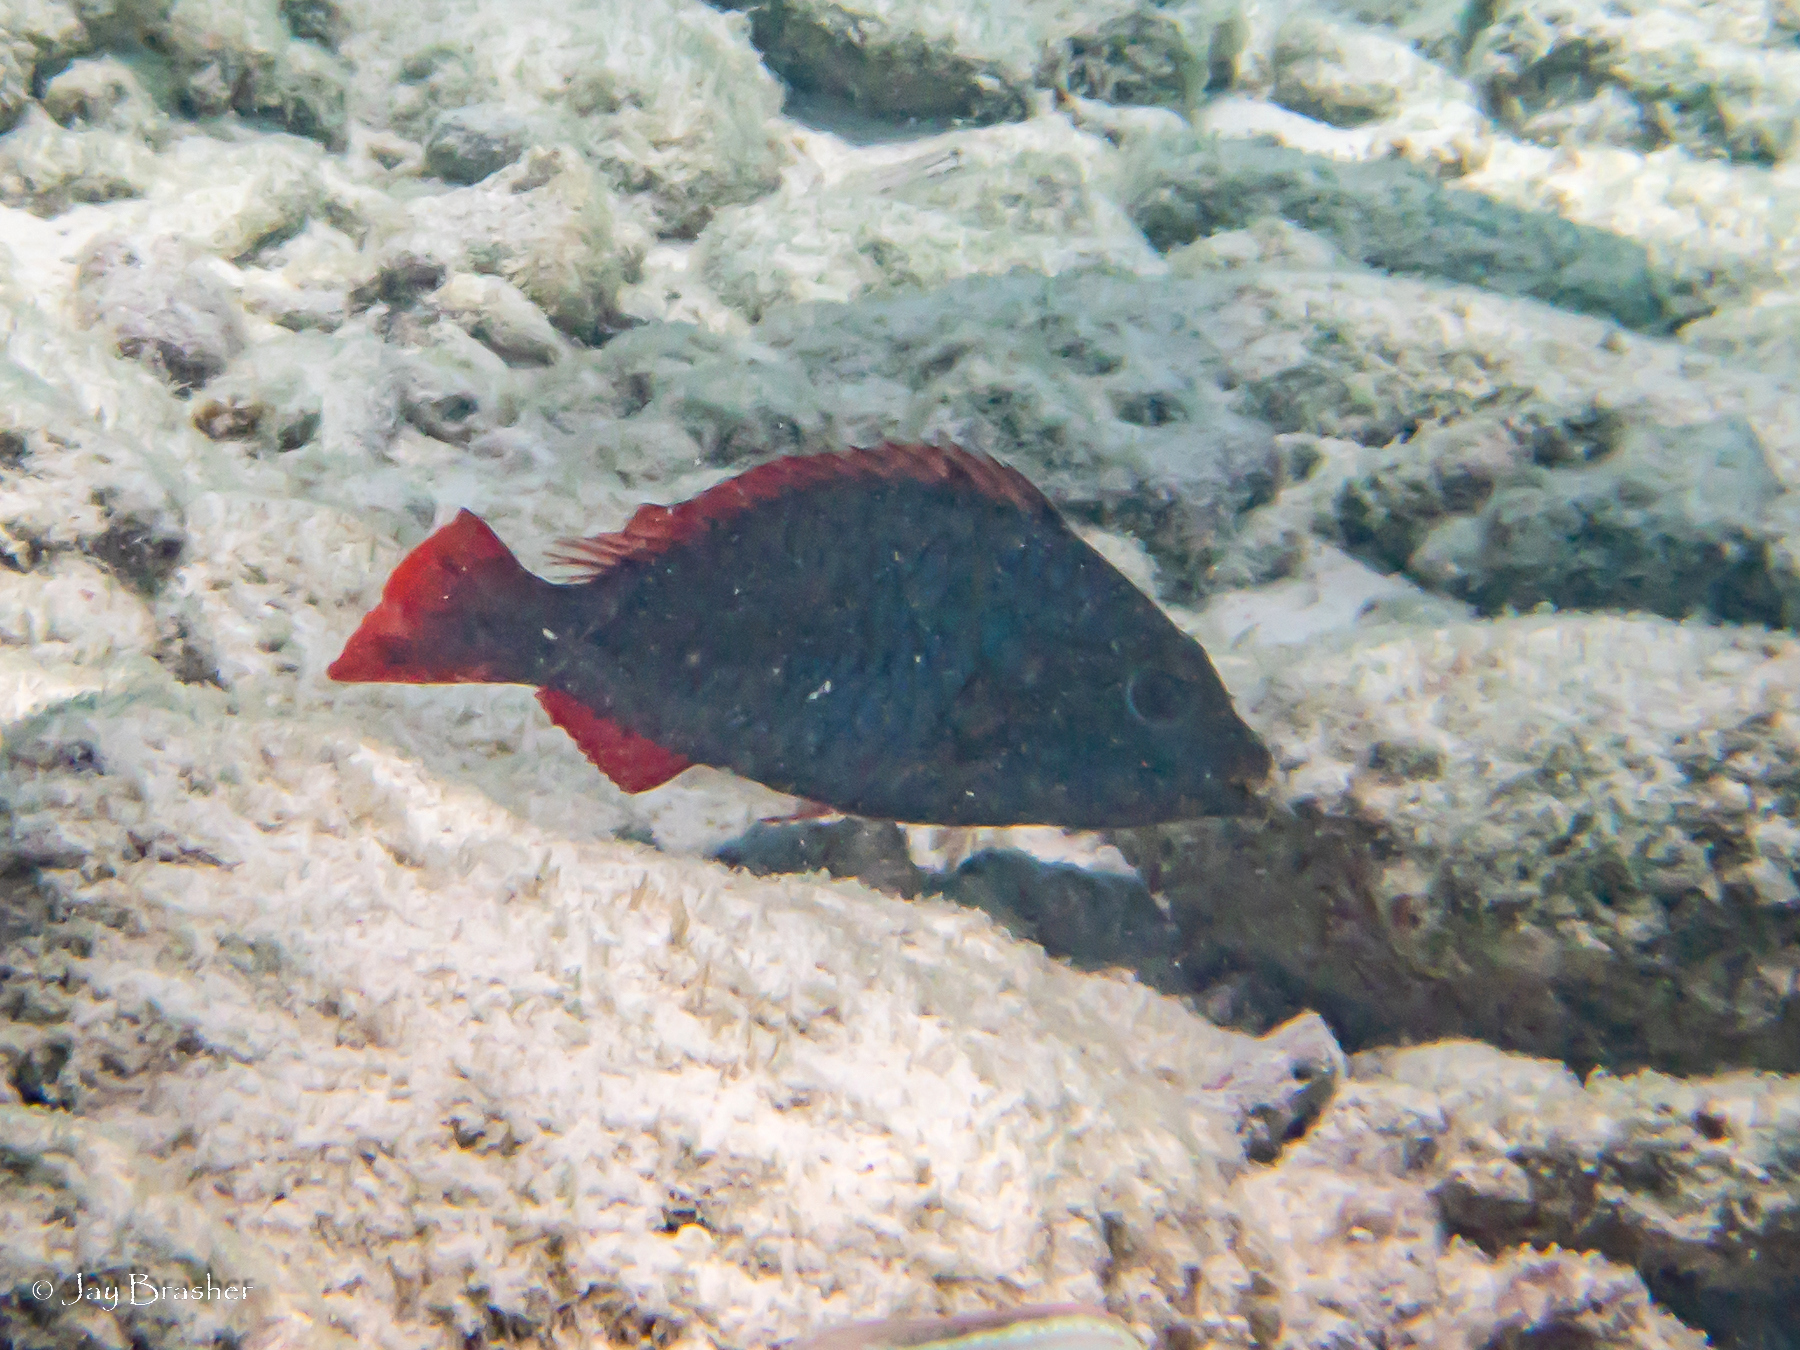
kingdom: Animalia
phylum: Chordata
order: Perciformes
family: Scaridae
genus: Sparisoma
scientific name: Sparisoma aurofrenatum
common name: Redband parrotfish
